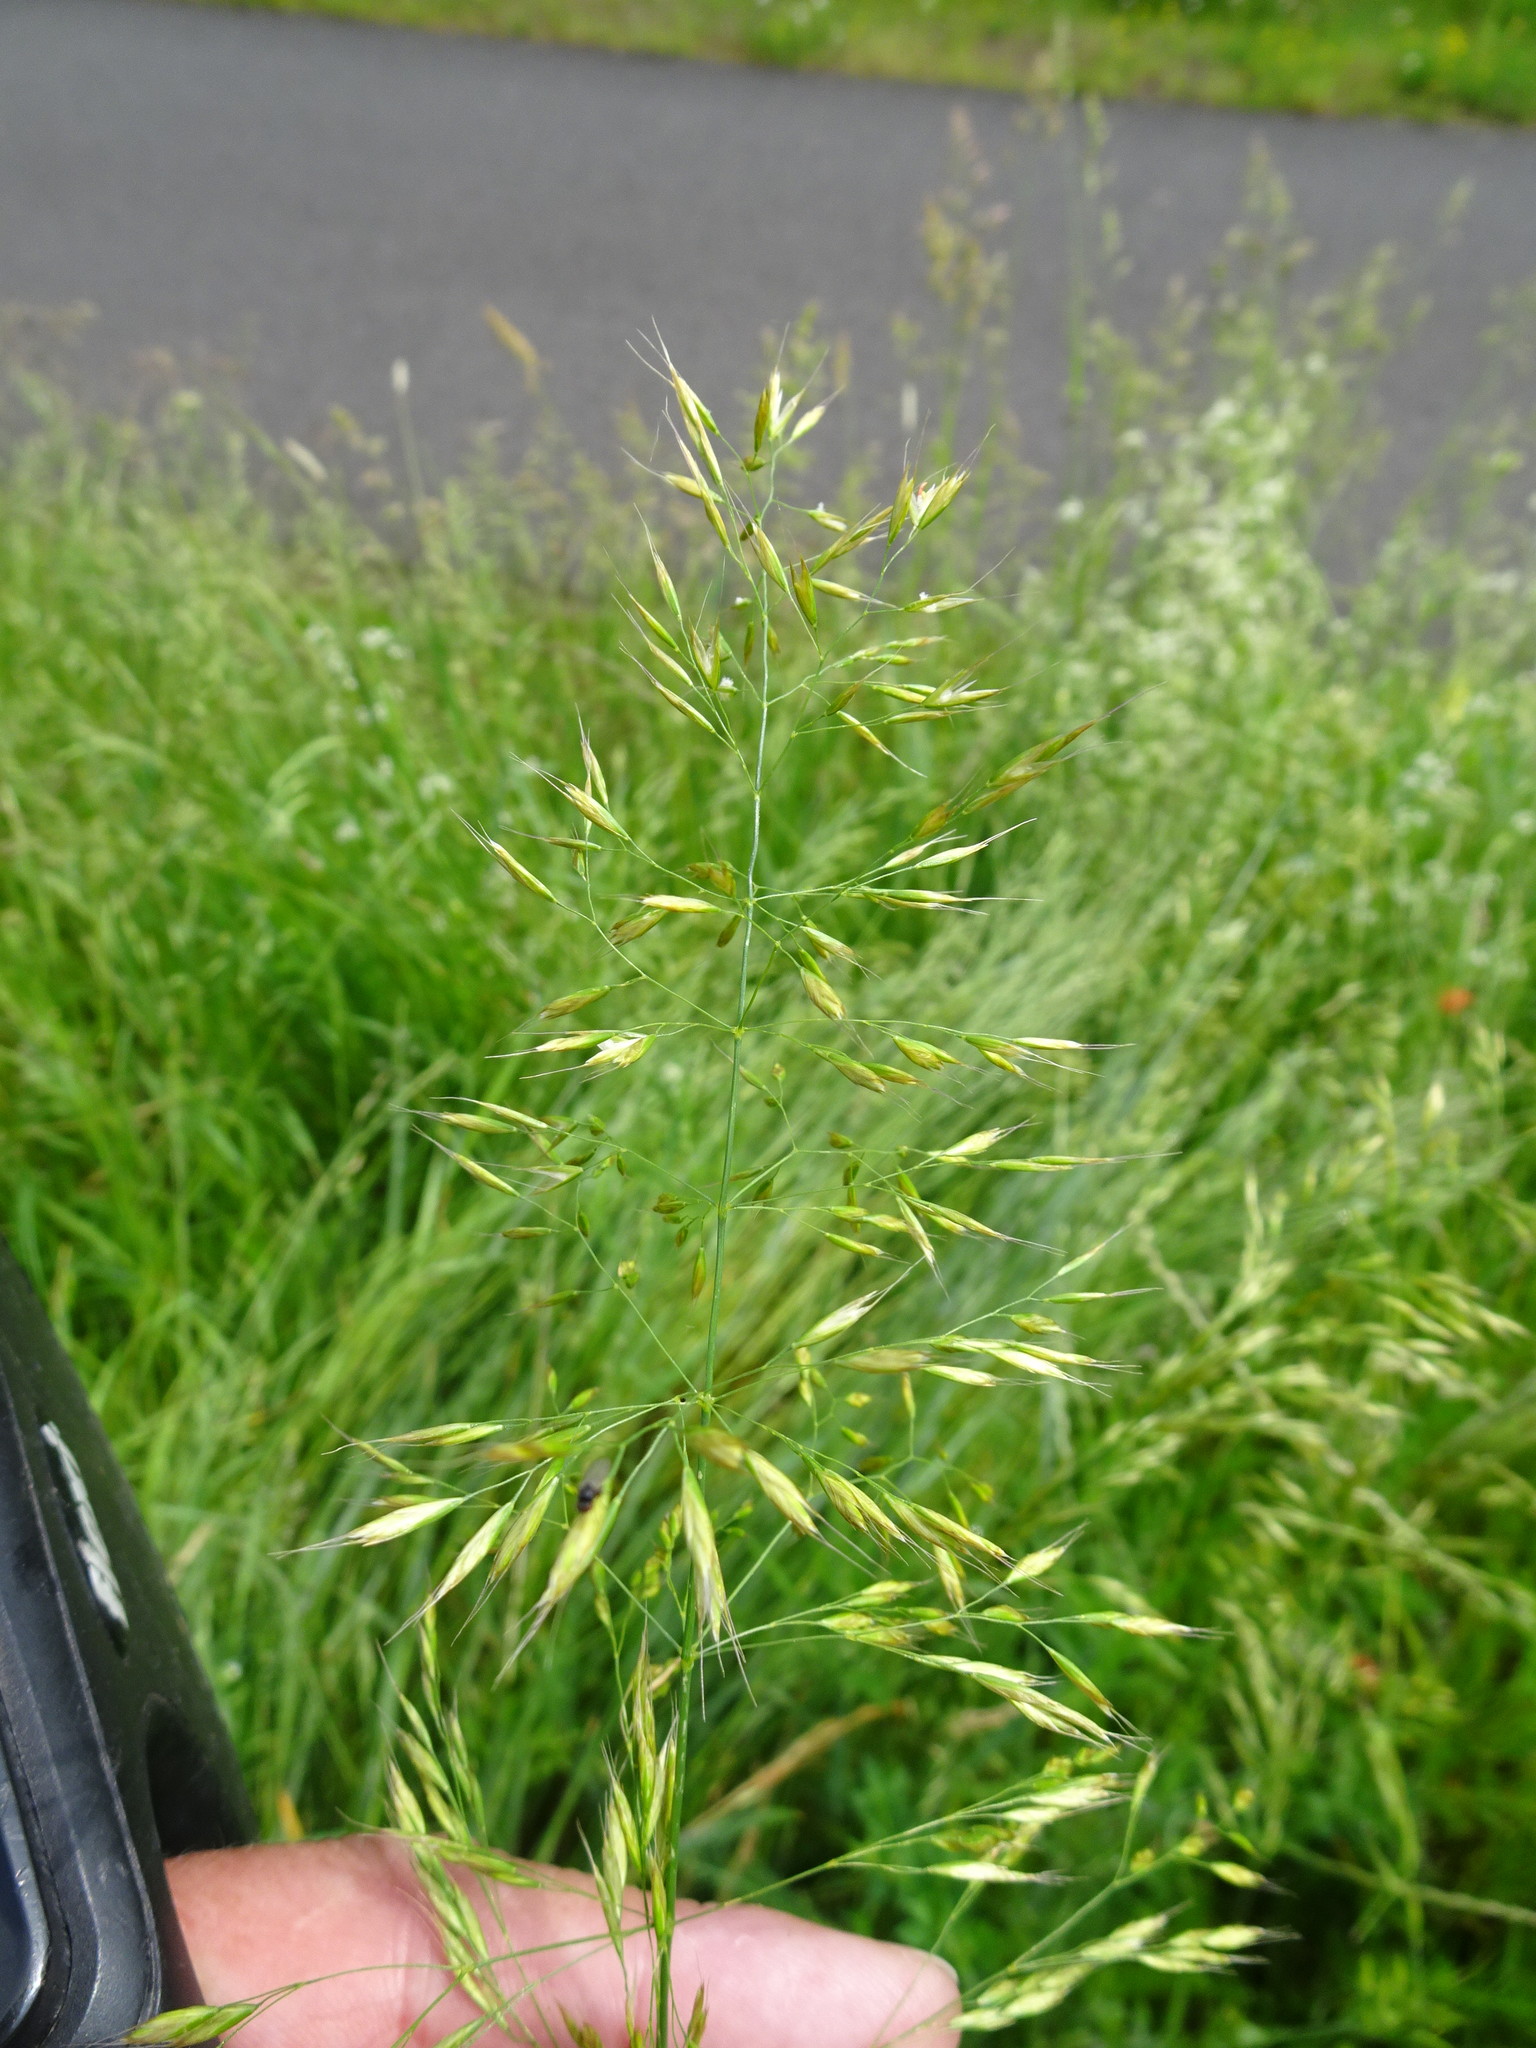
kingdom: Plantae
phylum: Tracheophyta
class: Liliopsida
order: Poales
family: Poaceae
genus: Trisetum
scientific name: Trisetum flavescens
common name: Yellow oat-grass
